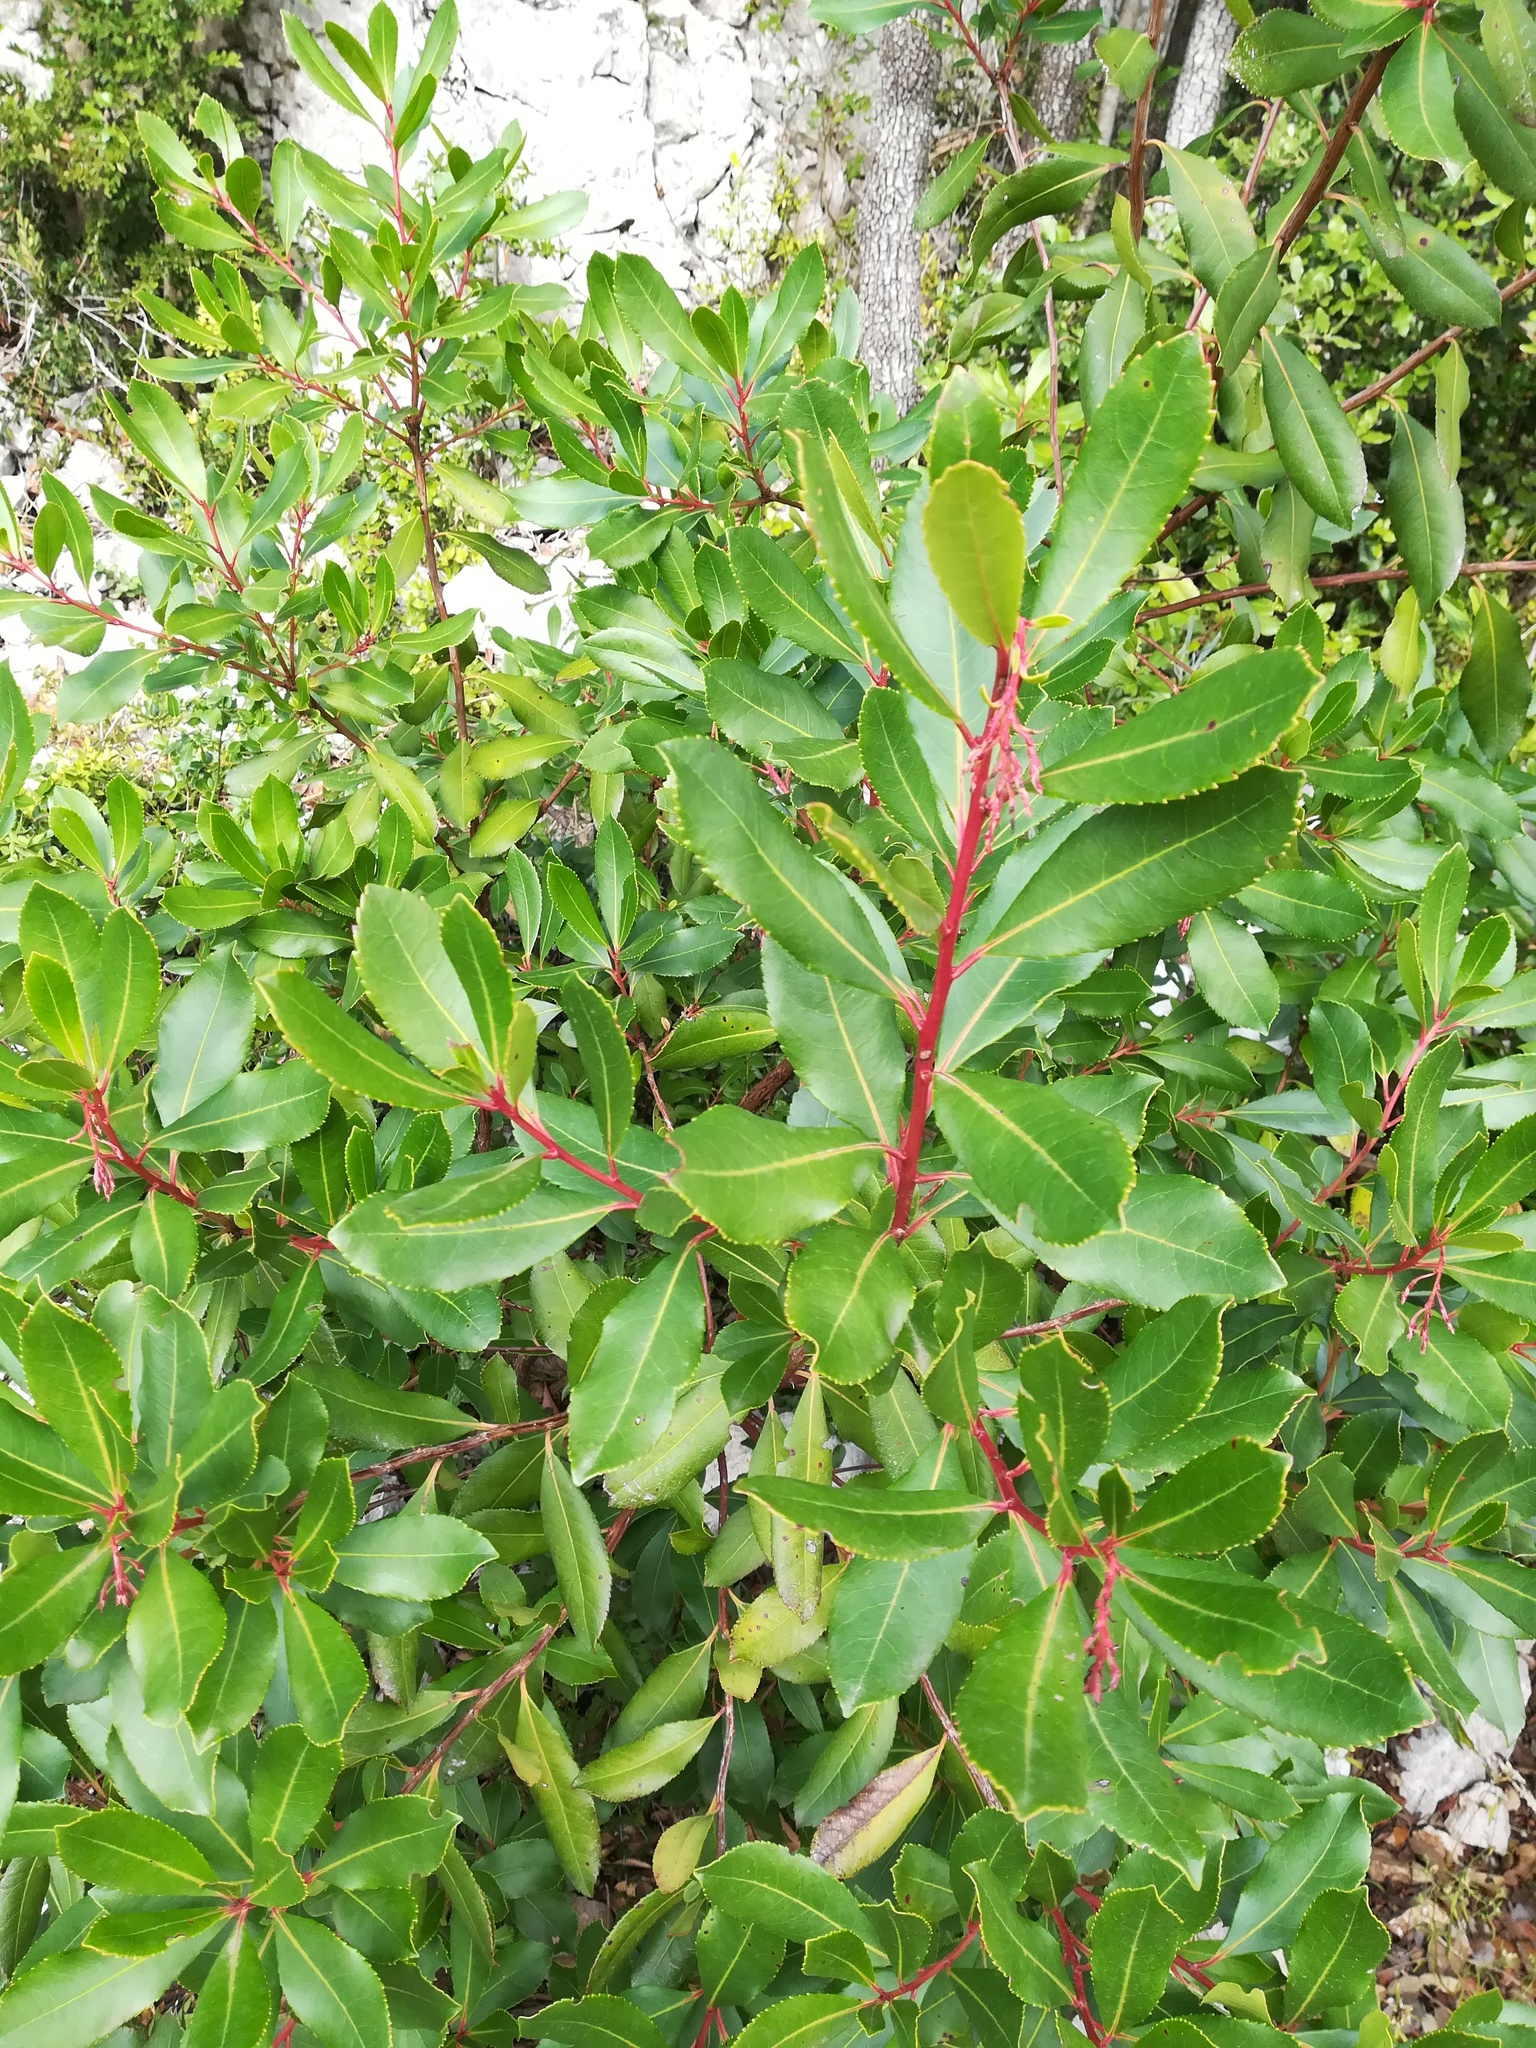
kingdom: Plantae
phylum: Tracheophyta
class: Magnoliopsida
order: Ericales
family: Ericaceae
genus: Arbutus
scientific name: Arbutus unedo
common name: Strawberry-tree
